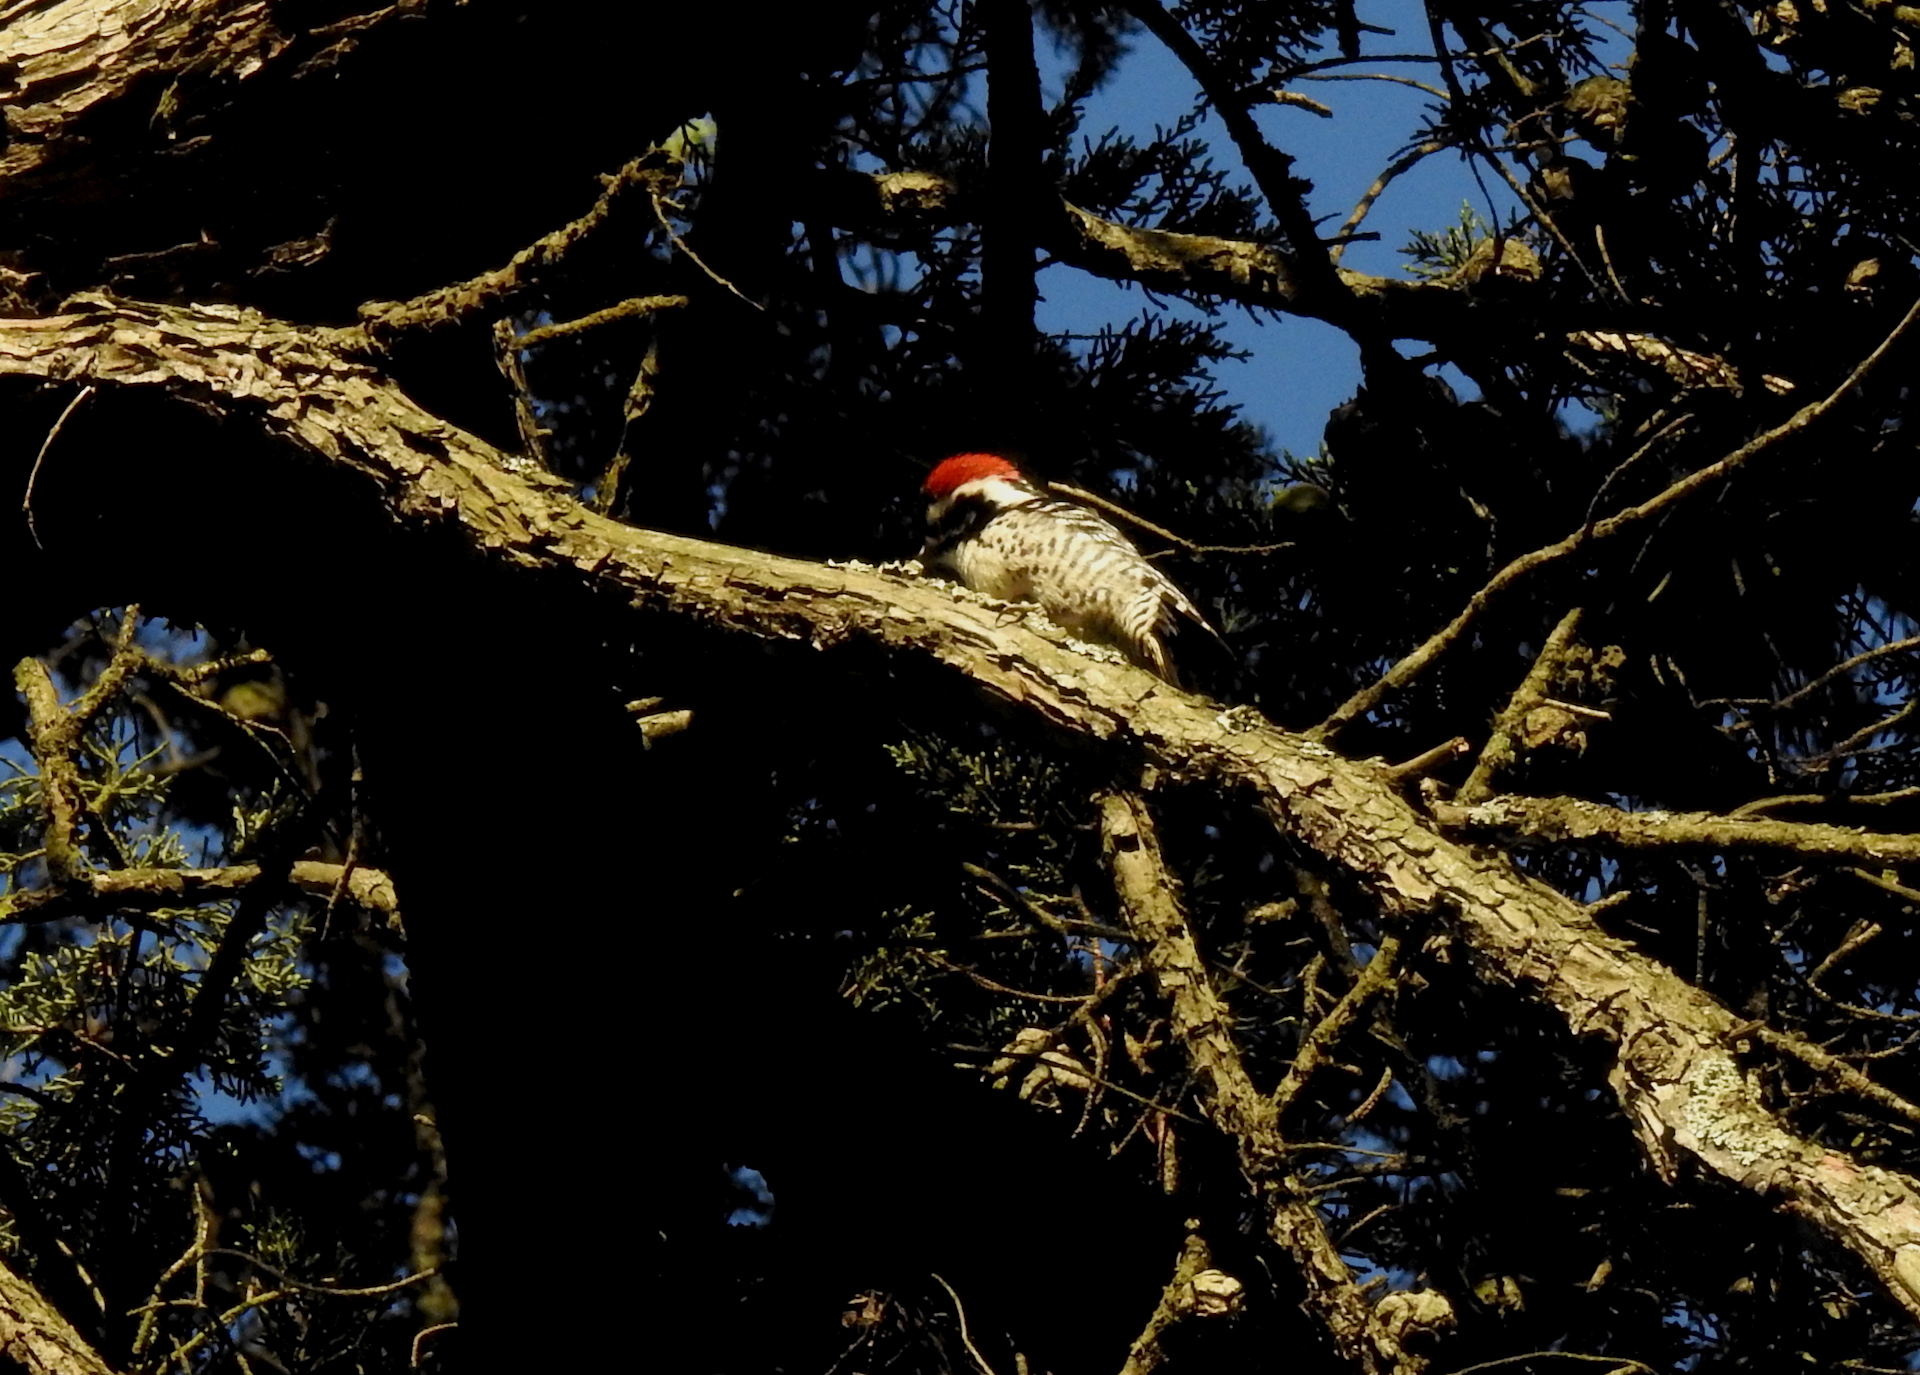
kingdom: Animalia
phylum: Chordata
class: Aves
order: Piciformes
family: Picidae
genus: Dryobates
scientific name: Dryobates nuttallii
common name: Nuttall's woodpecker
